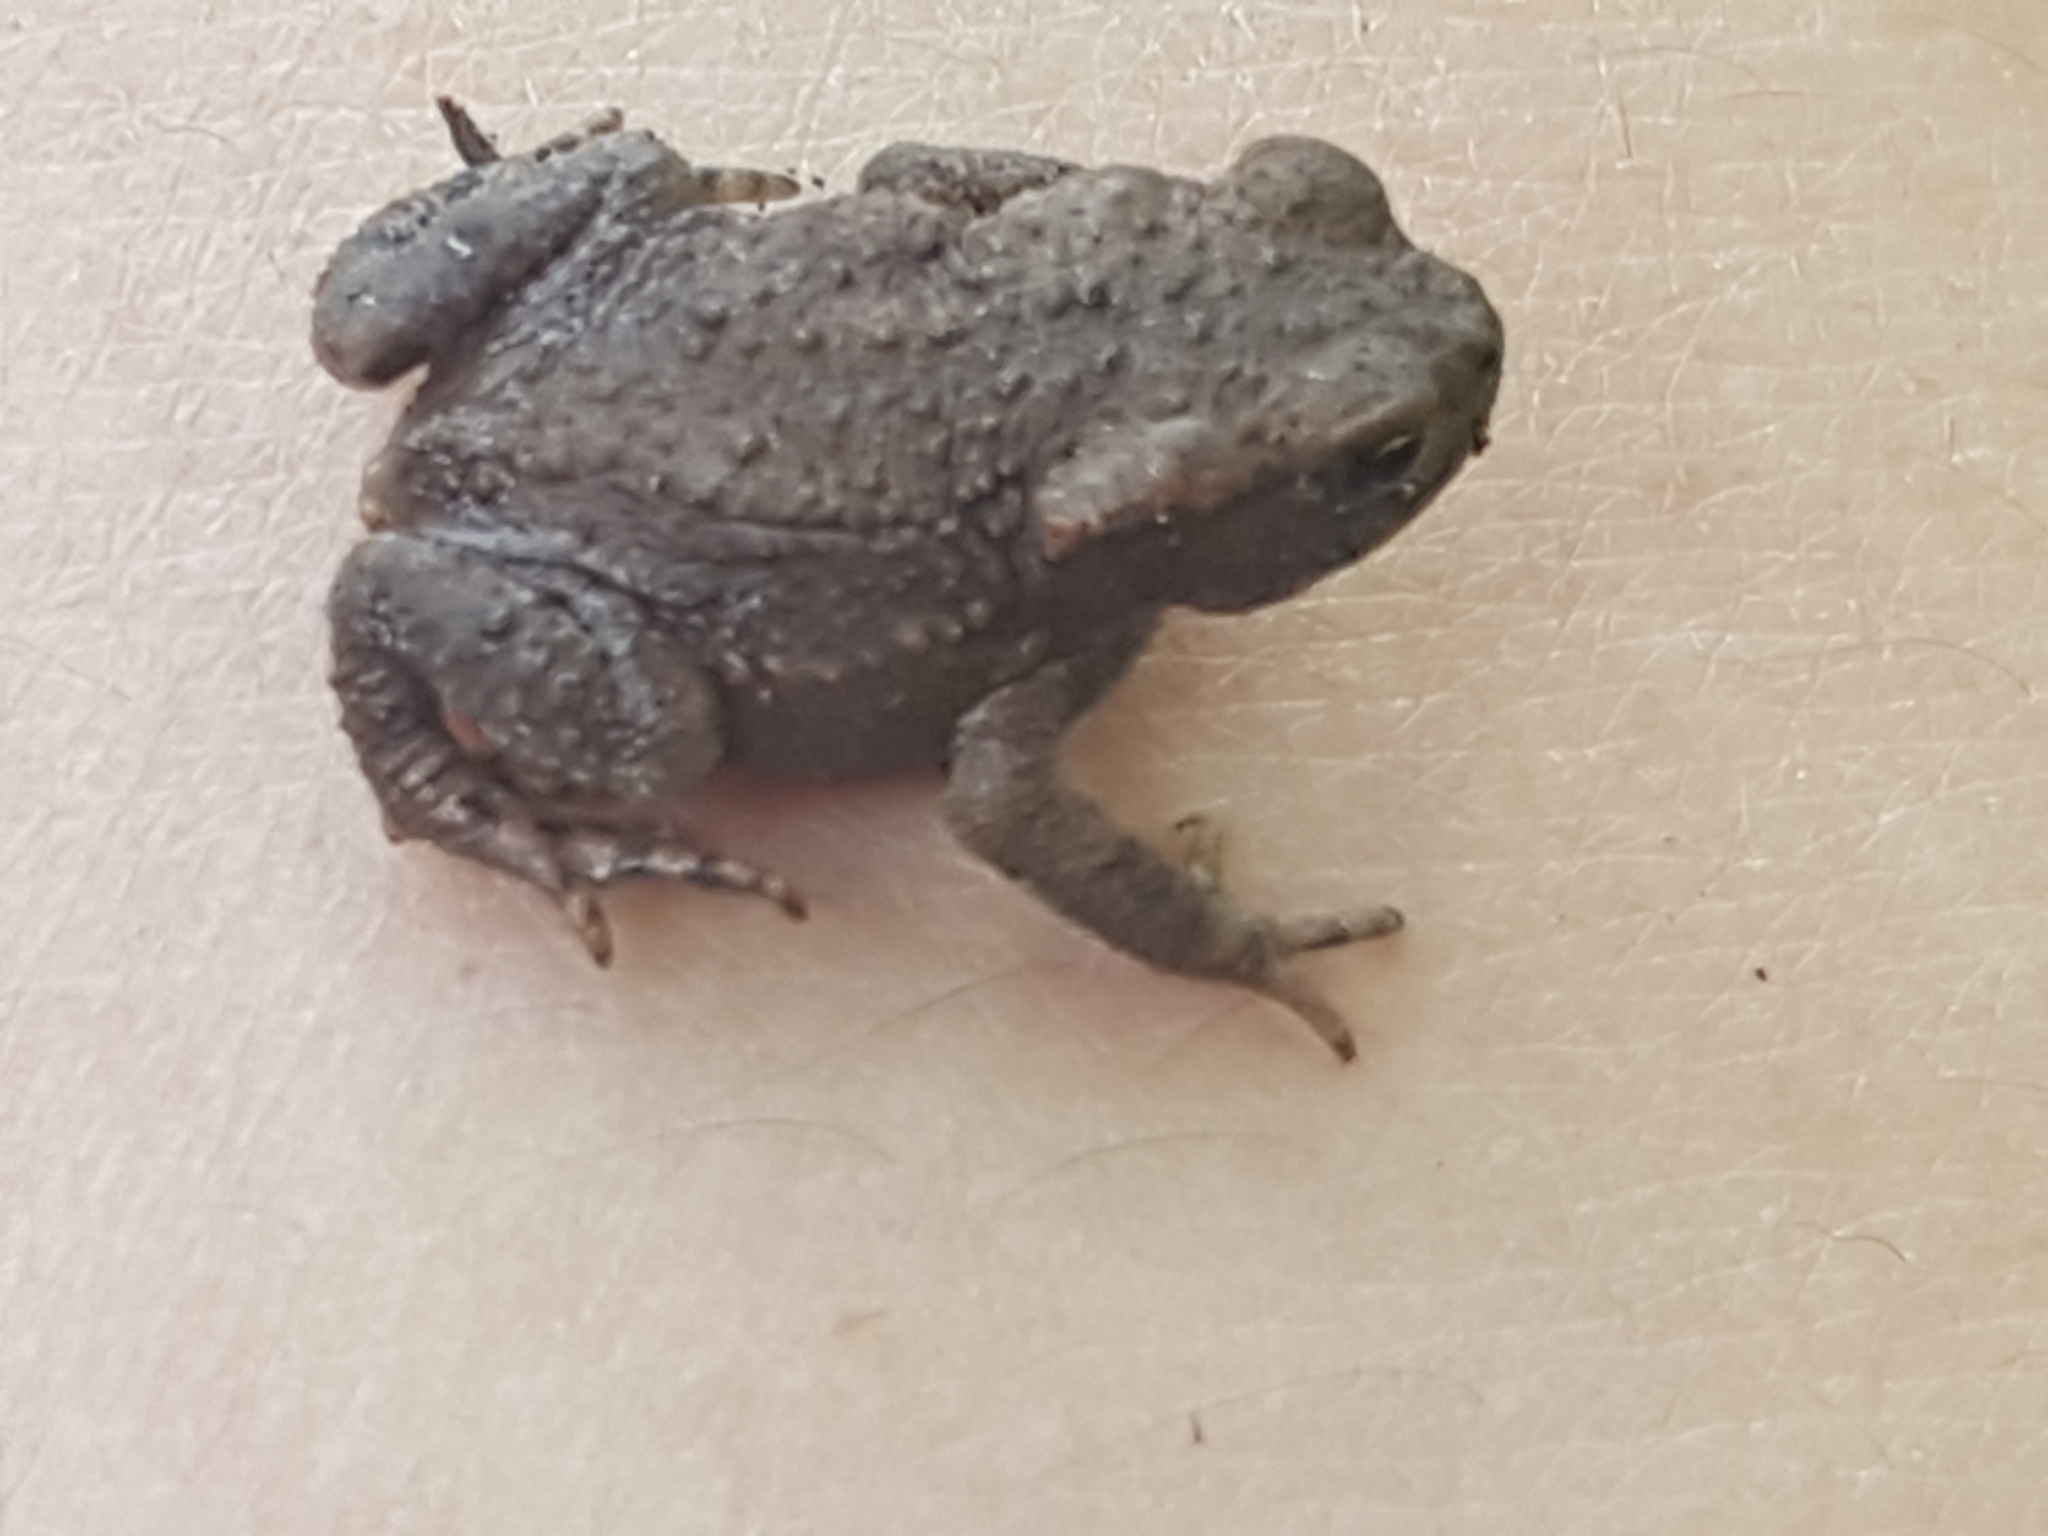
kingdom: Animalia
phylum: Chordata
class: Amphibia
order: Anura
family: Bufonidae
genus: Bufo
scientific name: Bufo bufo
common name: Common toad
